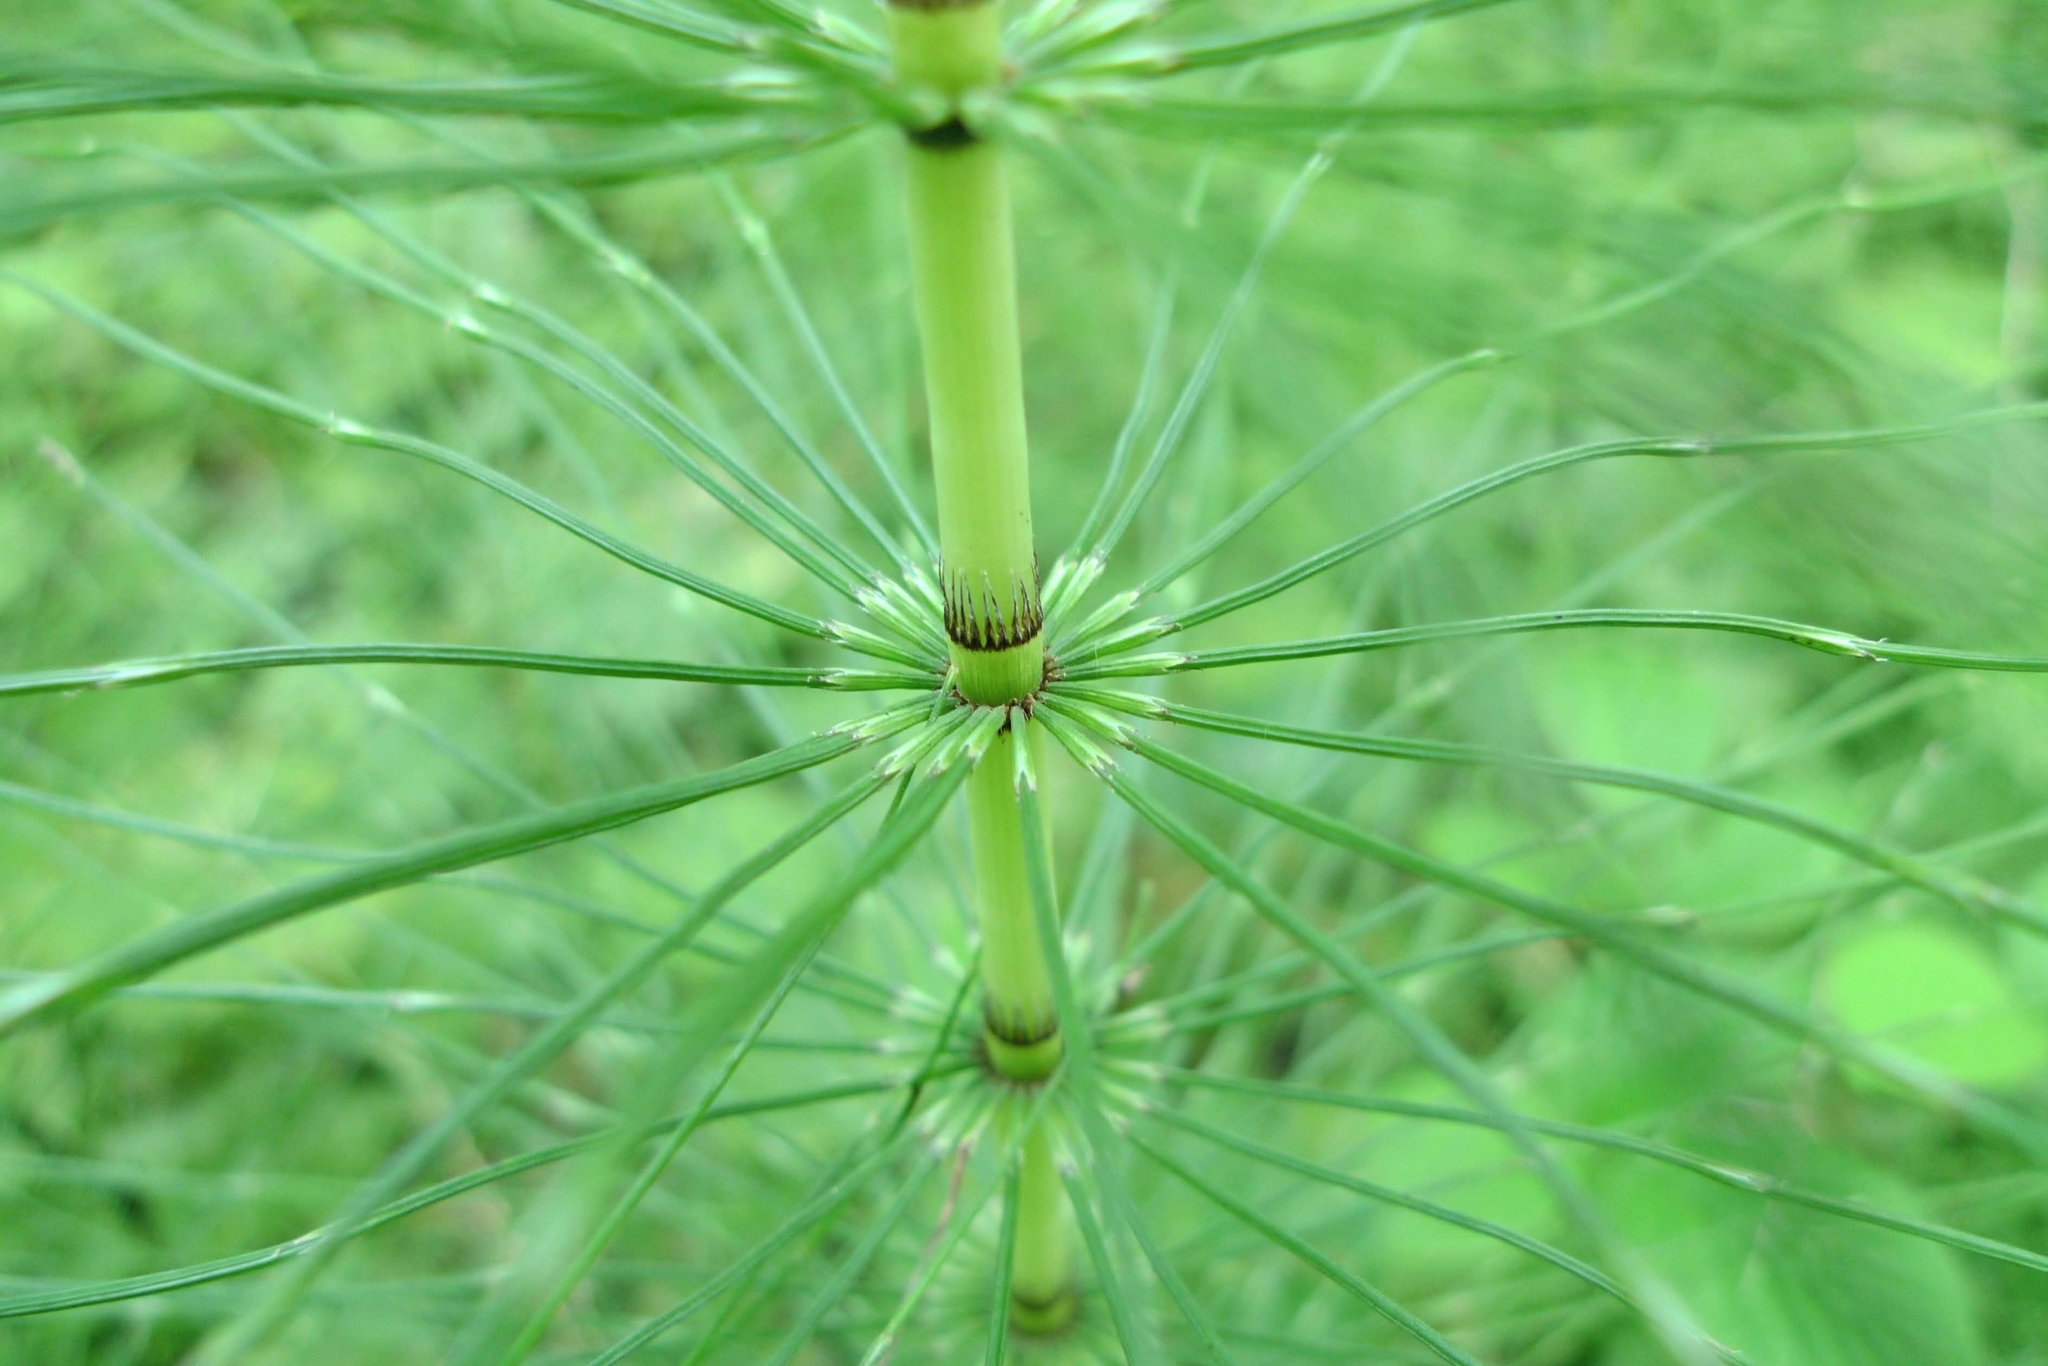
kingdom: Plantae
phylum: Tracheophyta
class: Polypodiopsida
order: Equisetales
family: Equisetaceae
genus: Equisetum
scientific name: Equisetum telmateia
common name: Great horsetail
